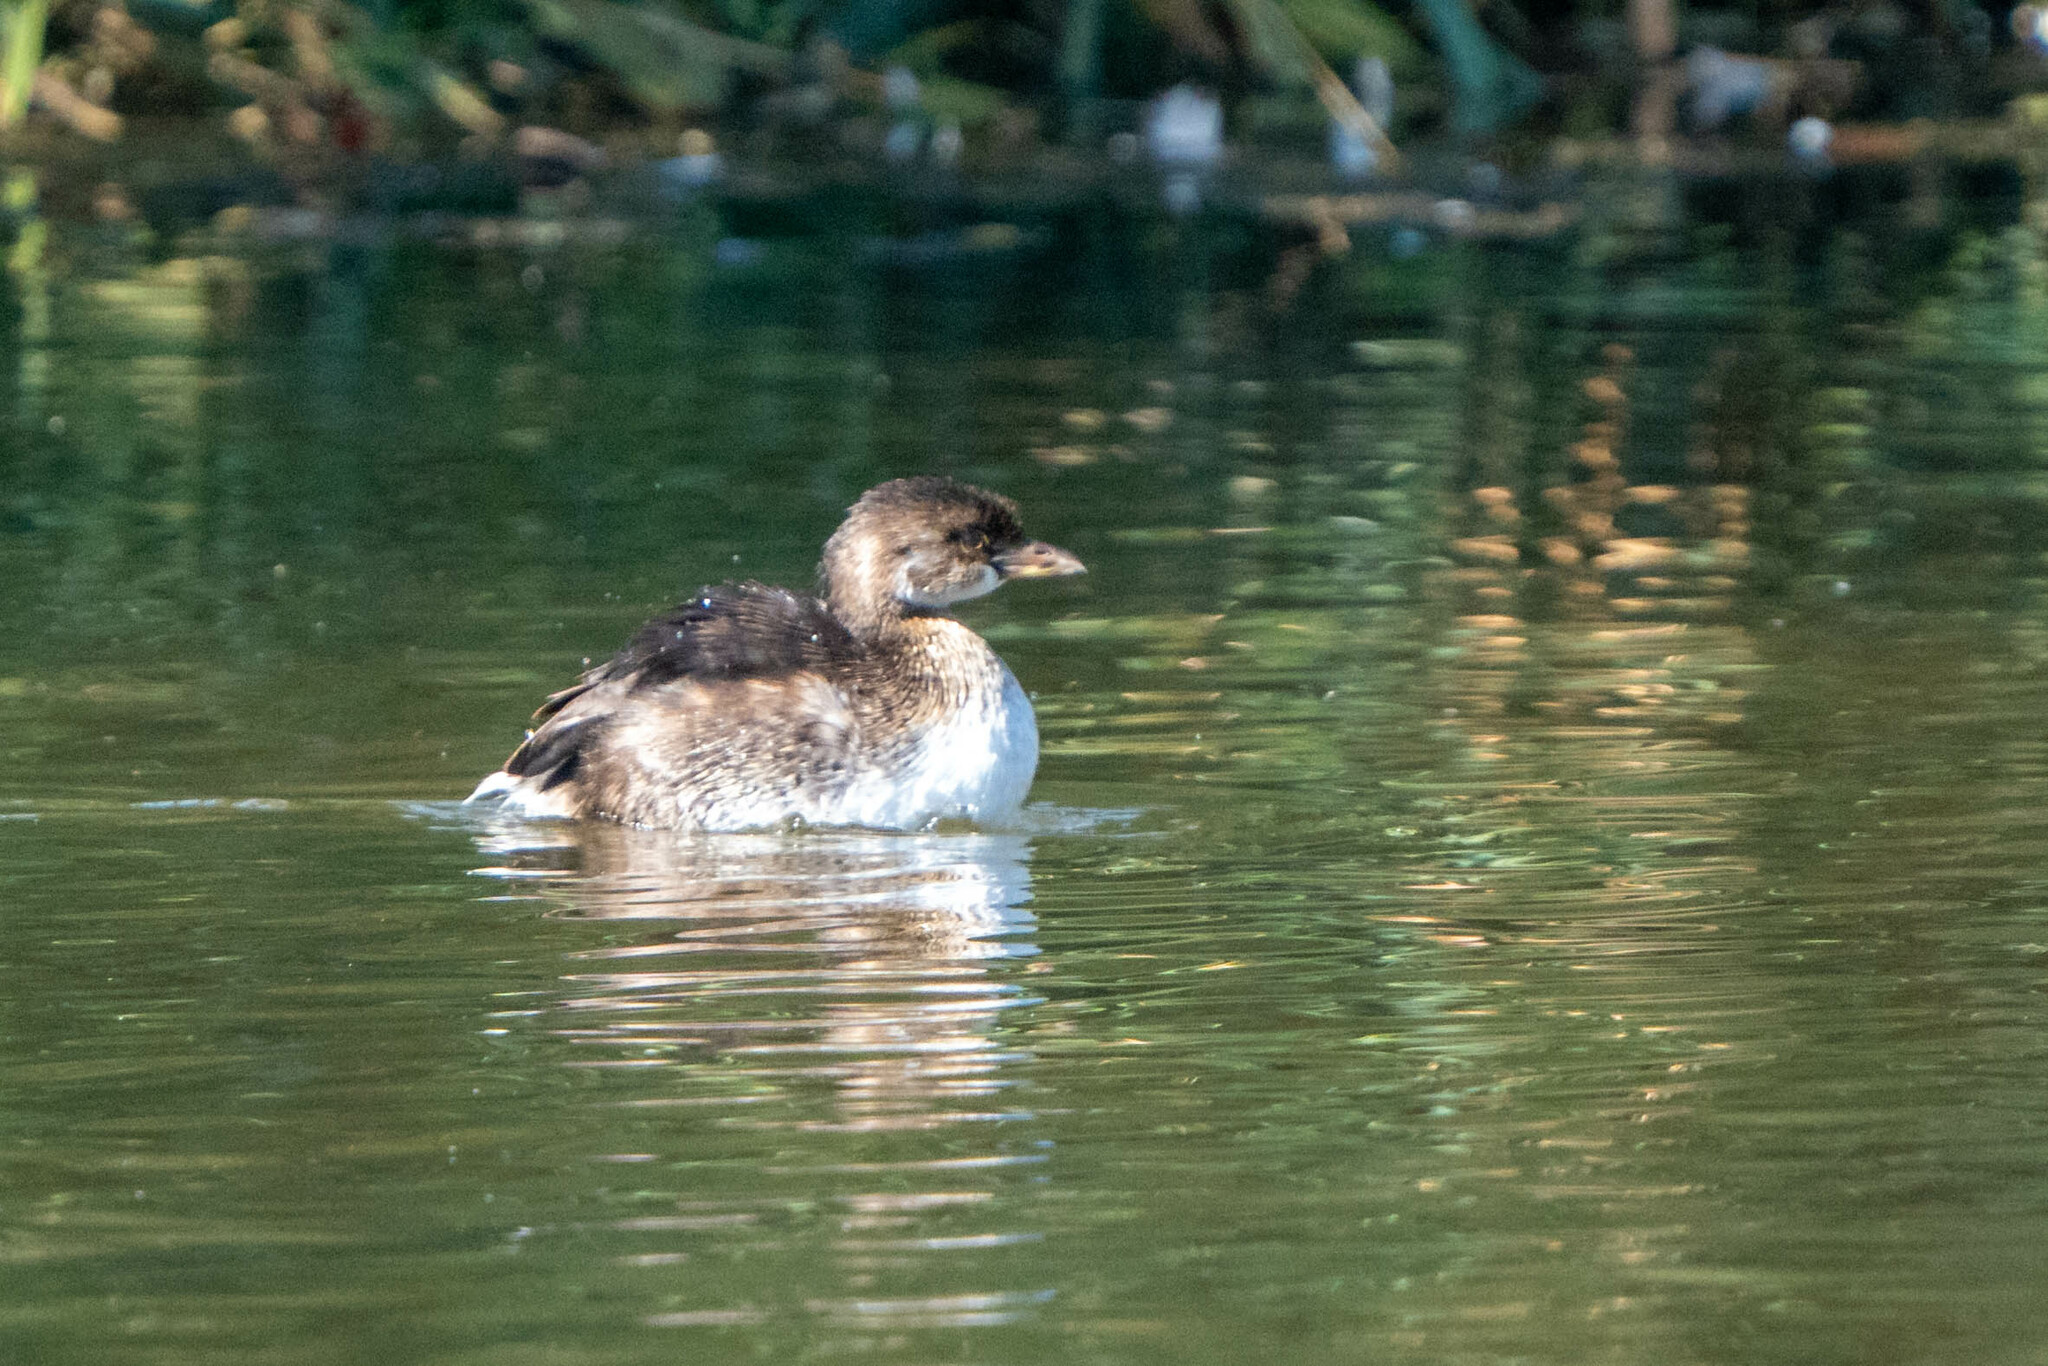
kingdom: Animalia
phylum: Chordata
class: Aves
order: Podicipediformes
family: Podicipedidae
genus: Podilymbus
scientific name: Podilymbus podiceps
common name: Pied-billed grebe
